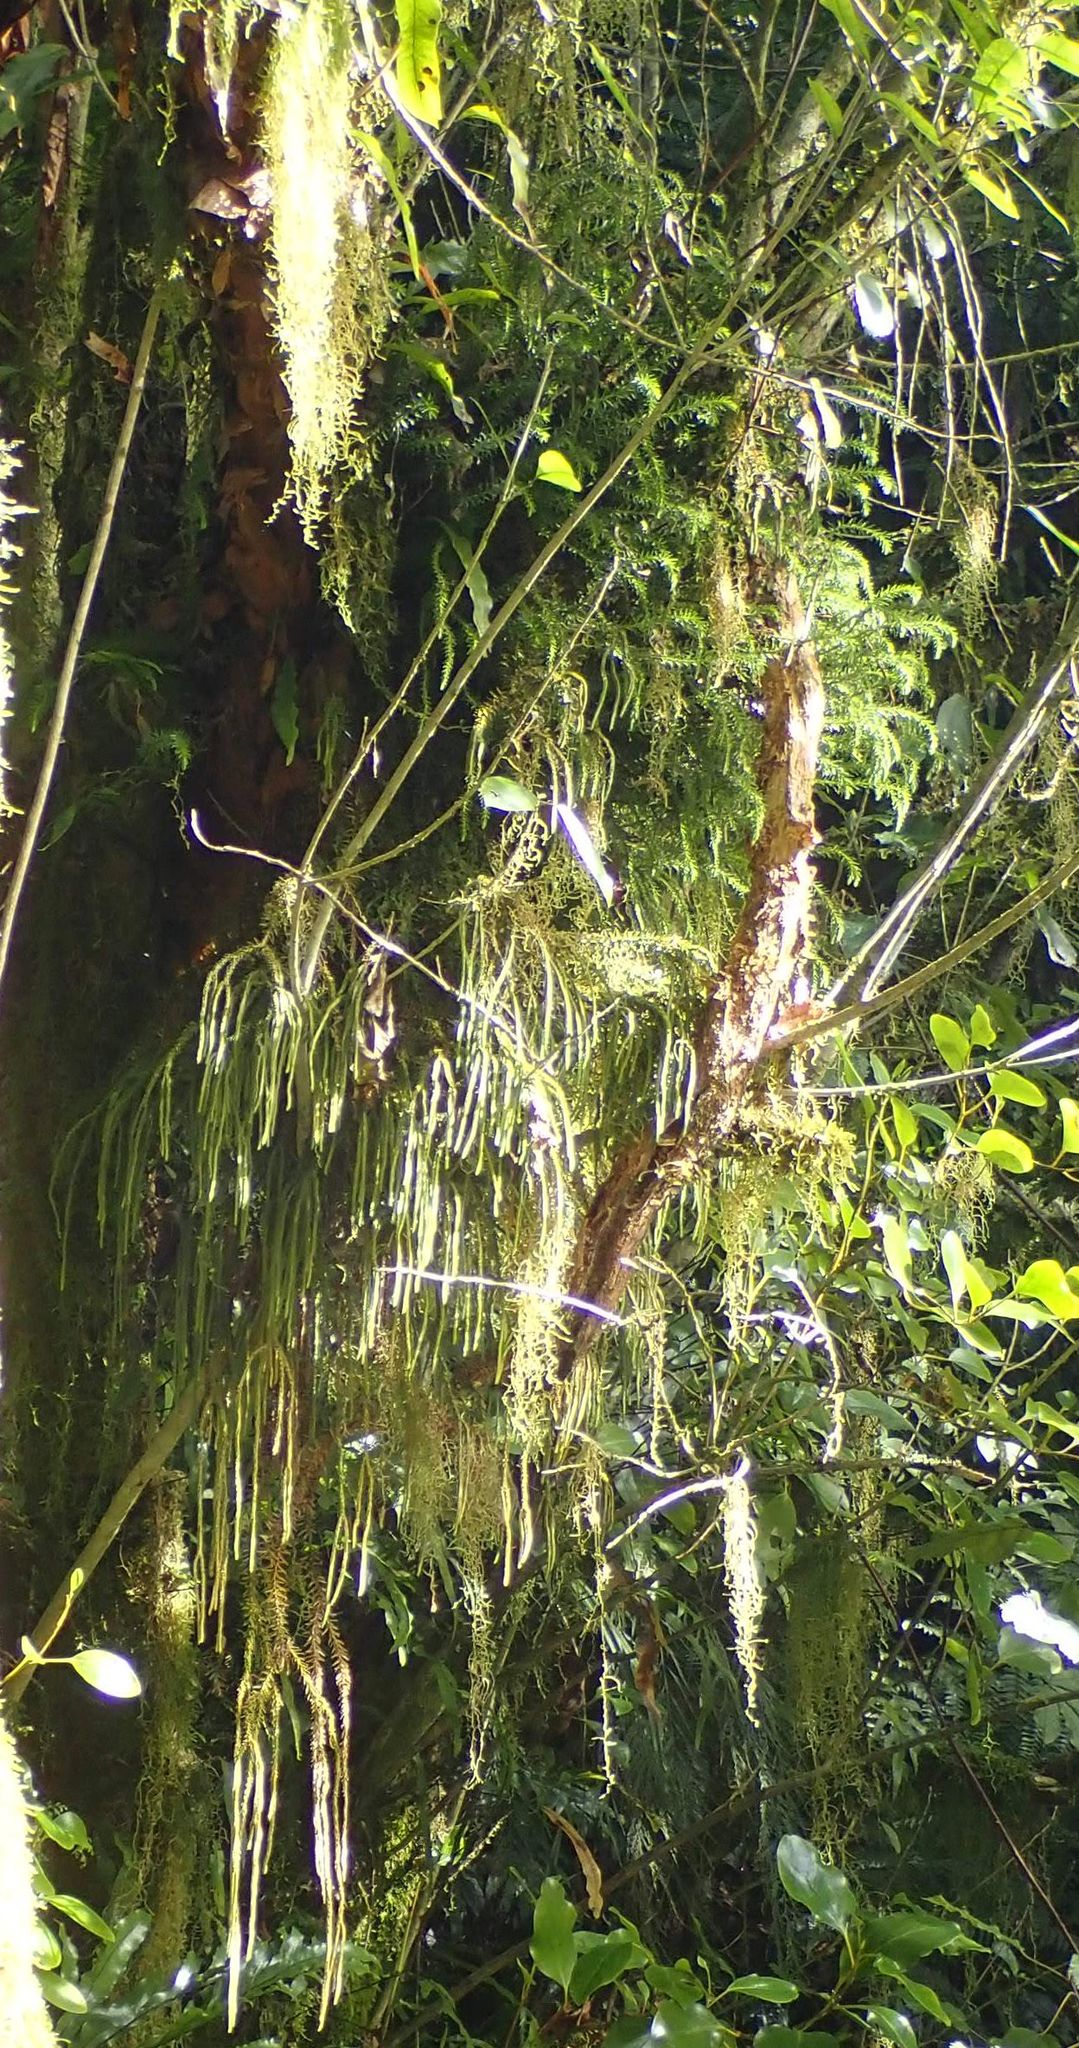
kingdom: Plantae
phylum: Tracheophyta
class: Lycopodiopsida
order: Lycopodiales
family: Lycopodiaceae
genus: Phlegmariurus
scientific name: Phlegmariurus varius
